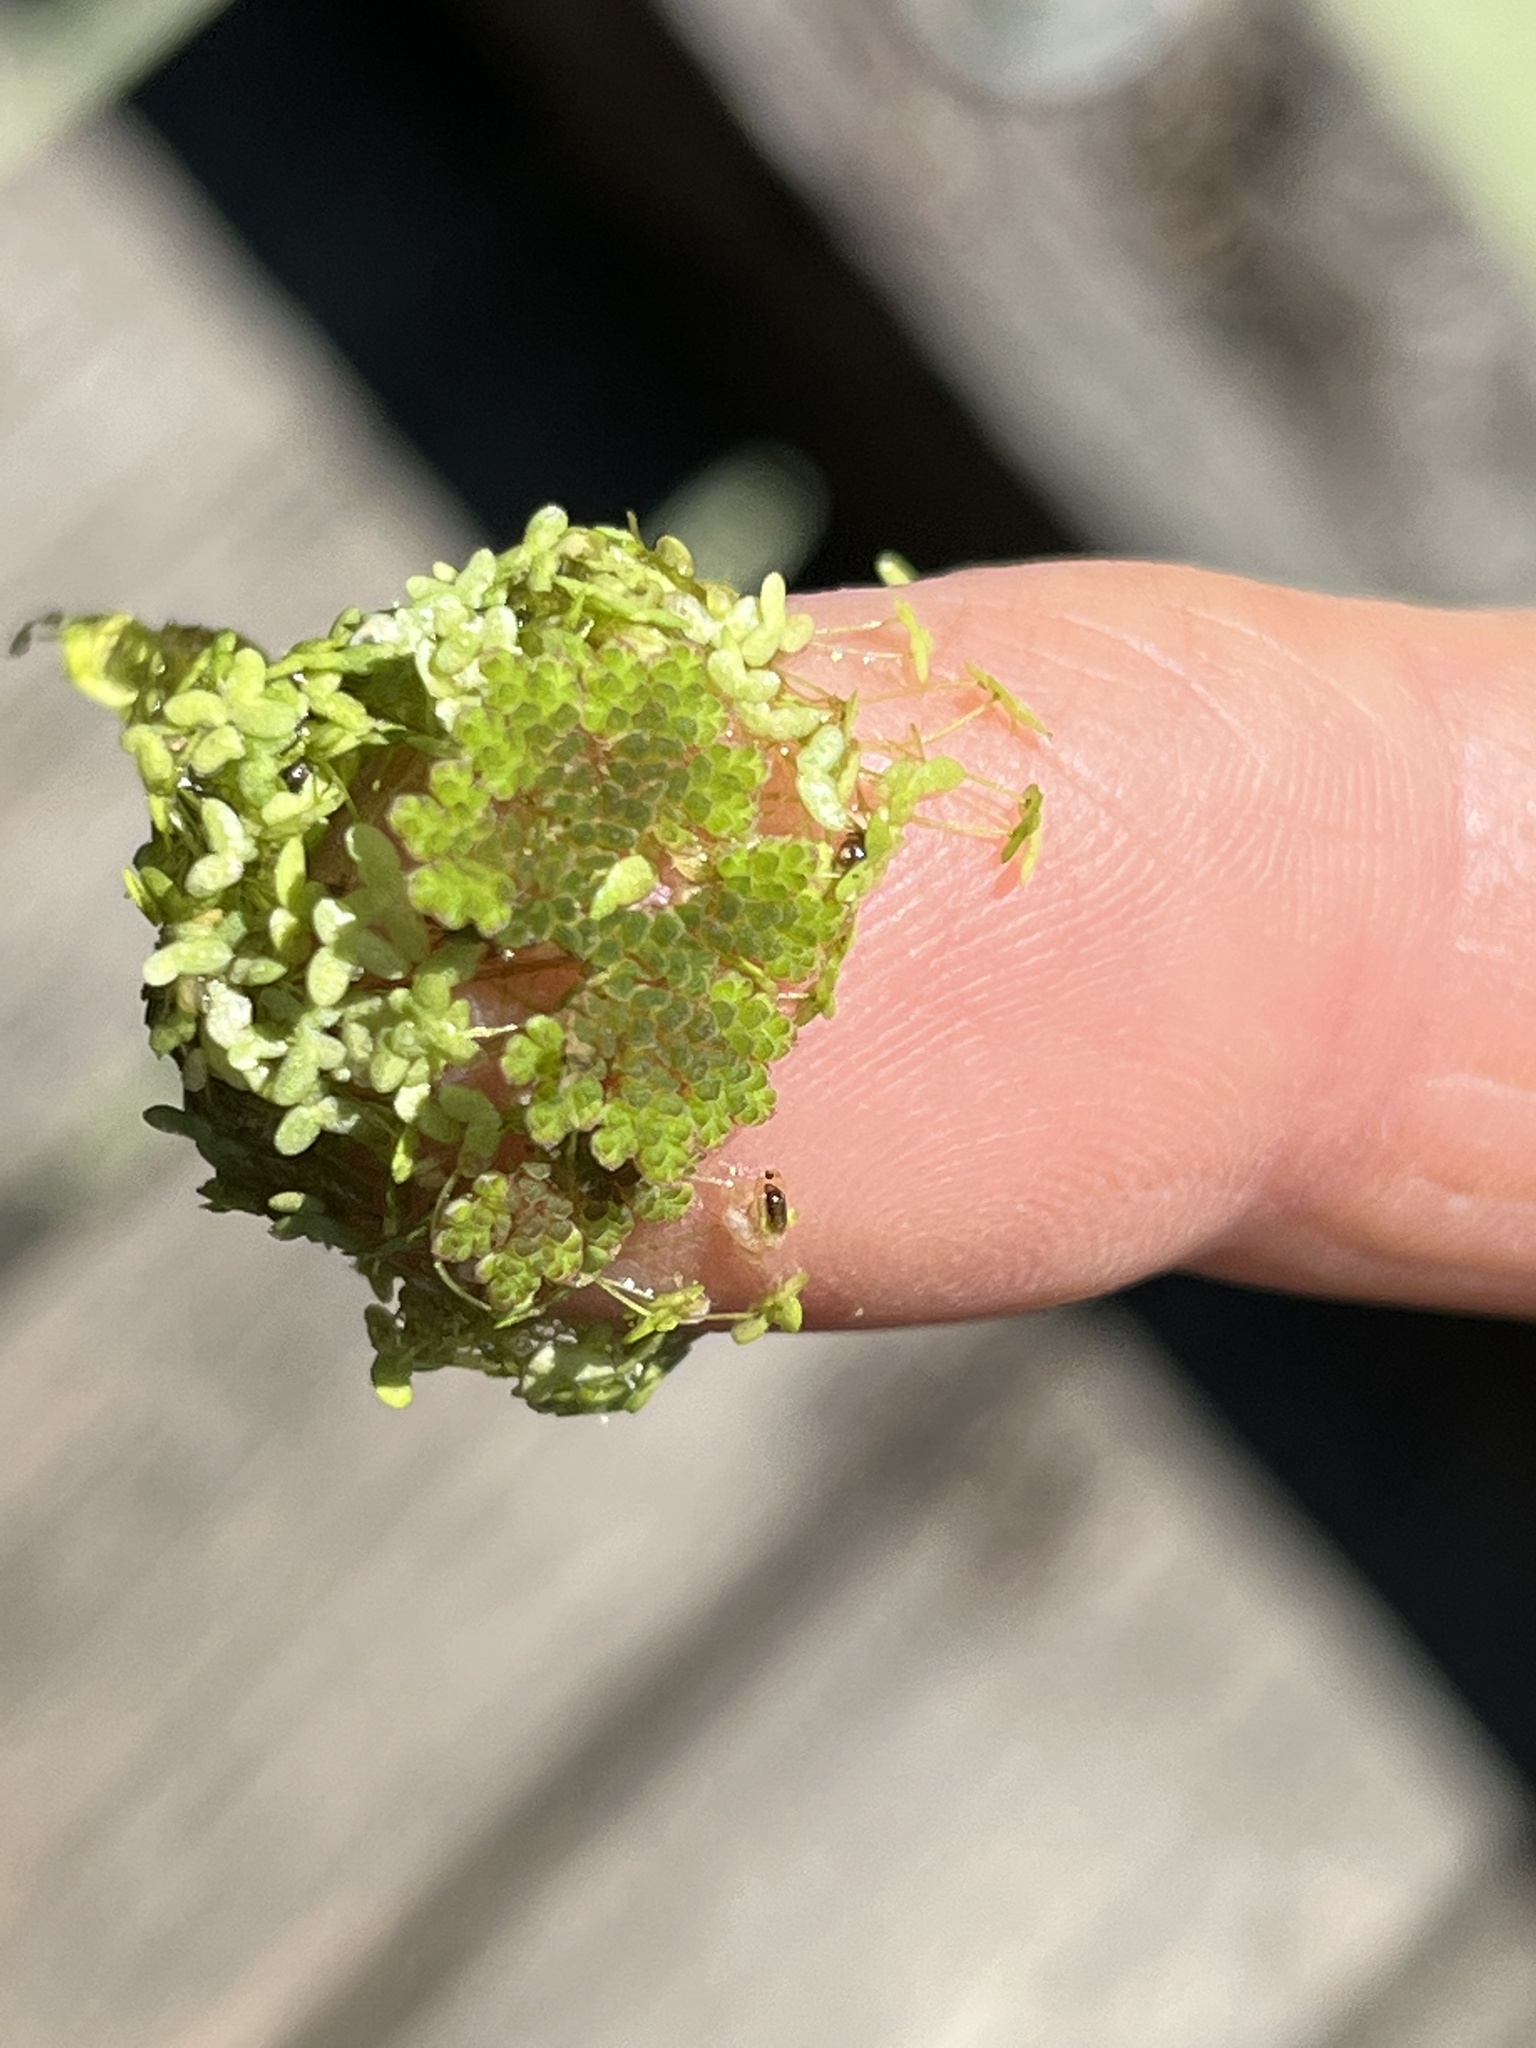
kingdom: Plantae
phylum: Tracheophyta
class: Polypodiopsida
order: Salviniales
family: Salviniaceae
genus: Azolla
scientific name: Azolla caroliniana
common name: Carolina mosquitofern
